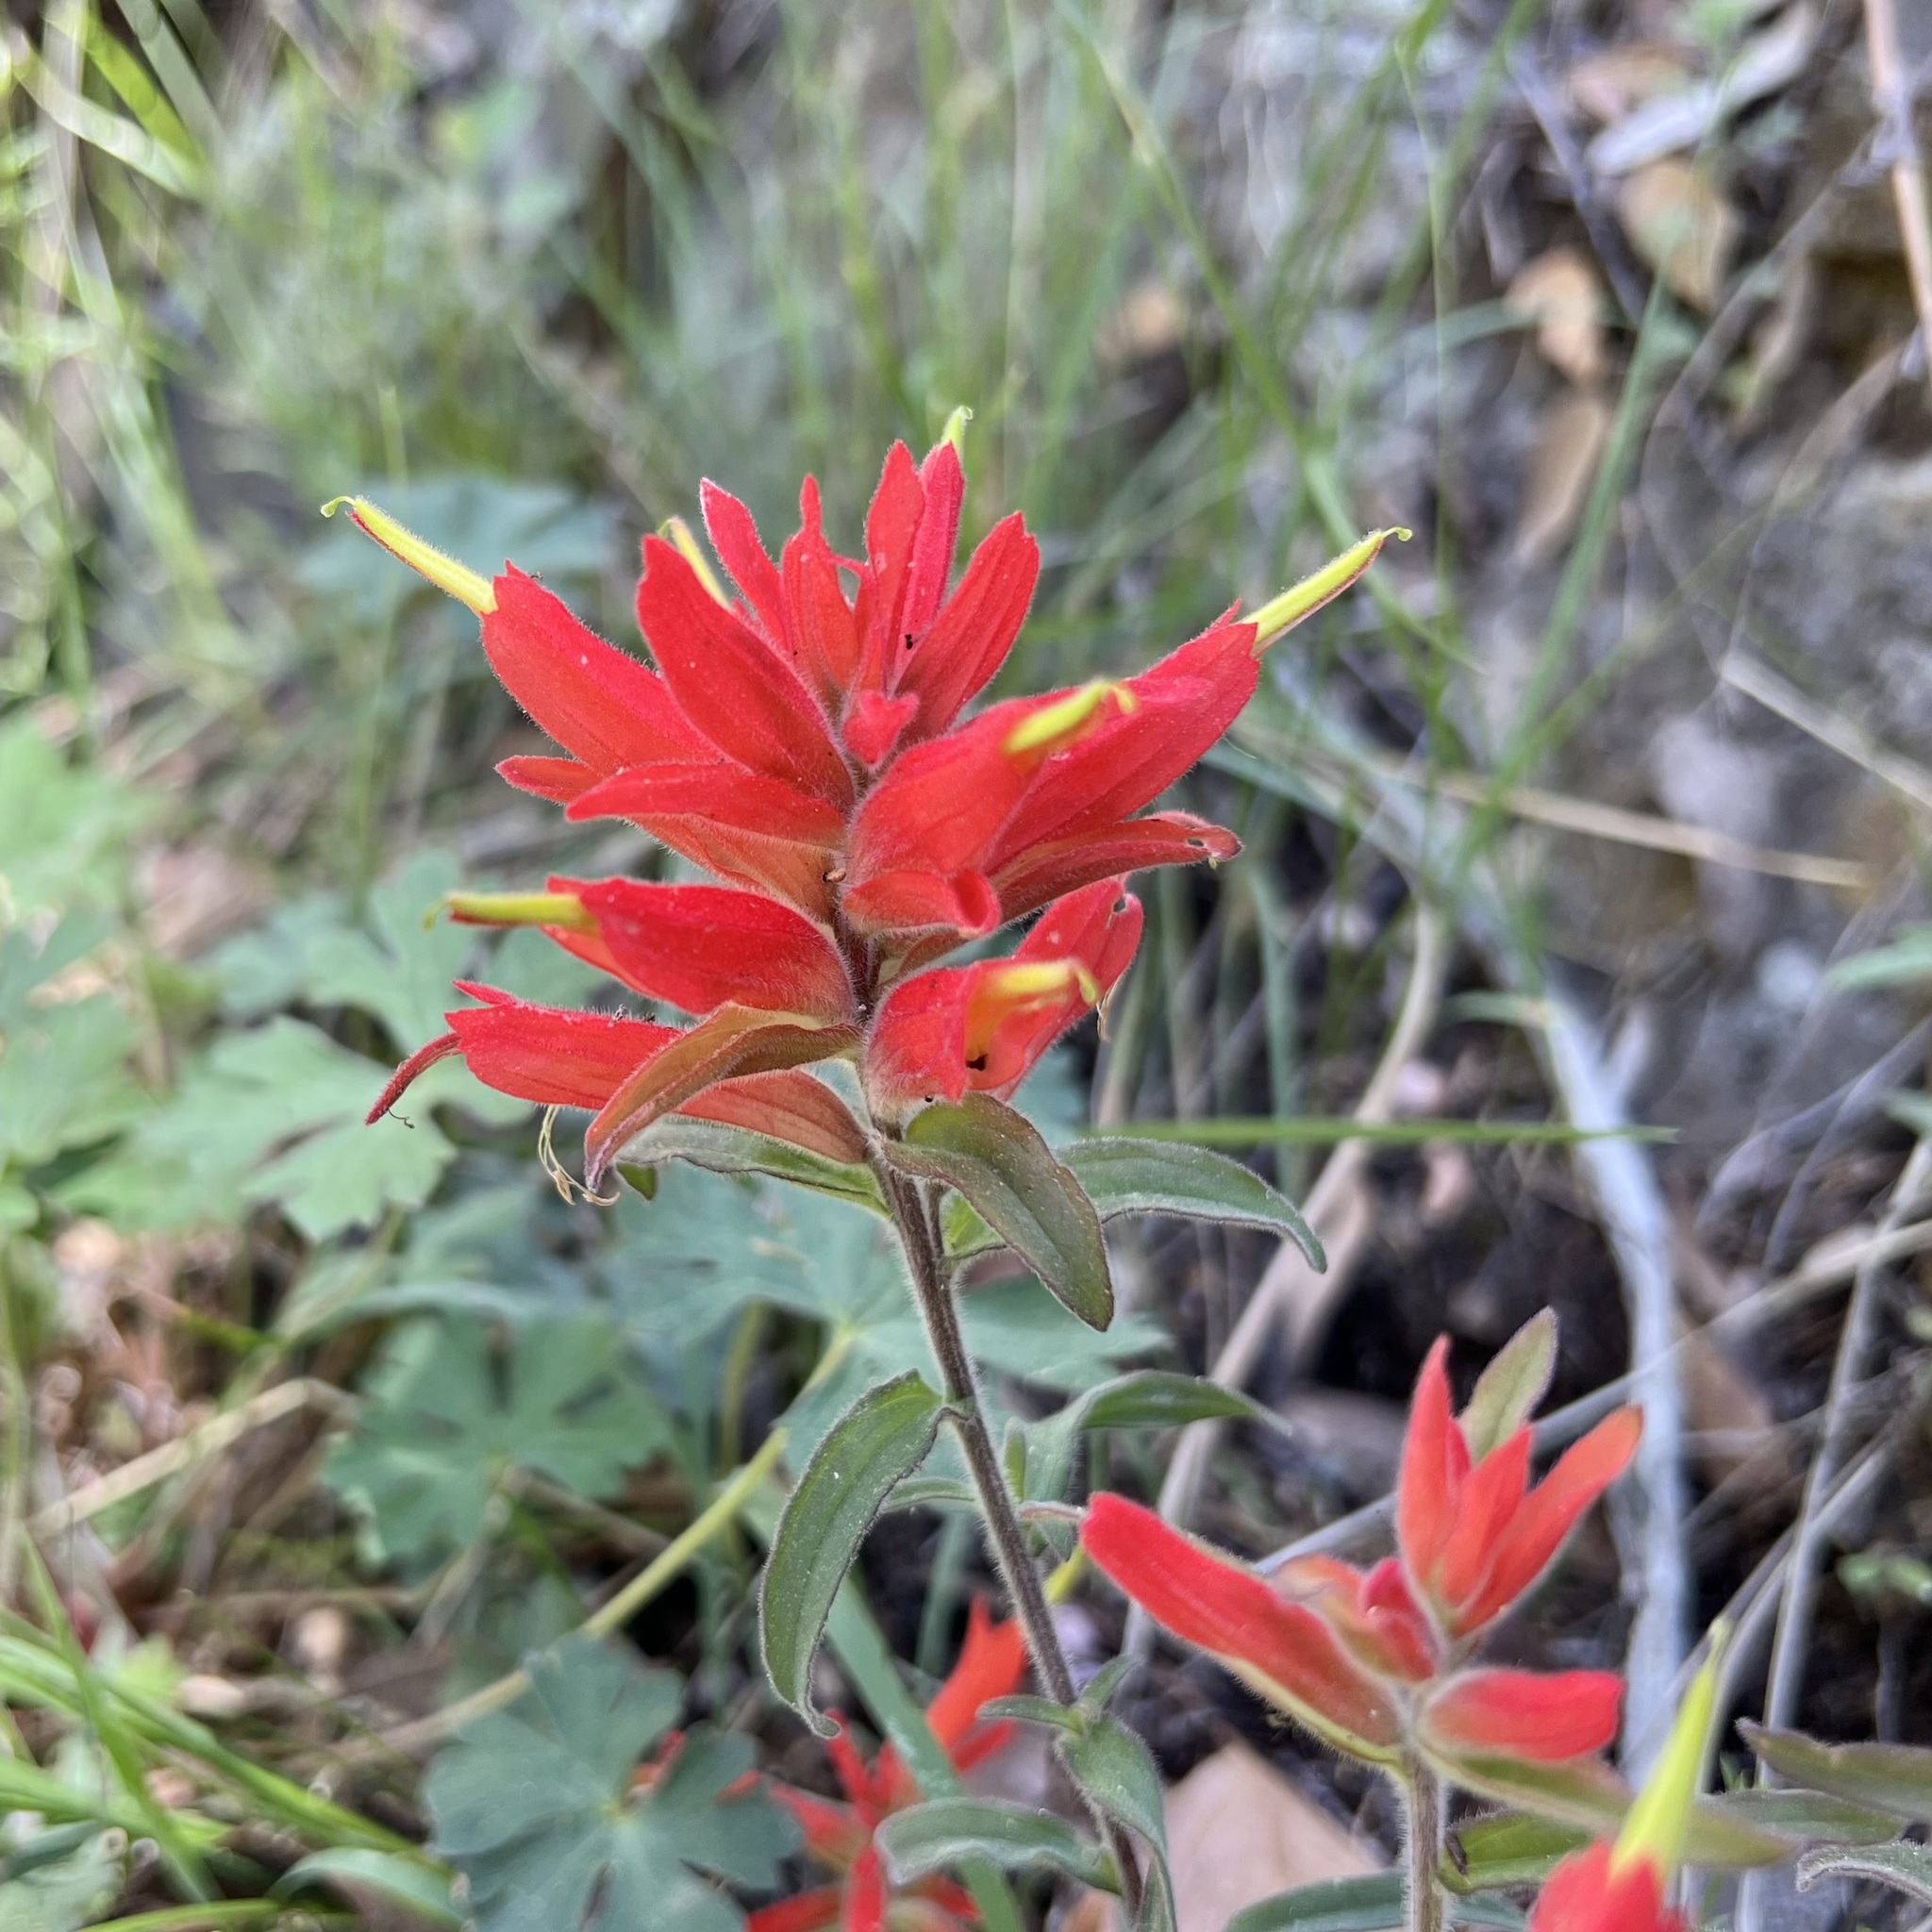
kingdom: Plantae
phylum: Tracheophyta
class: Magnoliopsida
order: Lamiales
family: Orobanchaceae
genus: Castilleja
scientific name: Castilleja tenuiflora
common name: Santa catalina indian paintbrush
